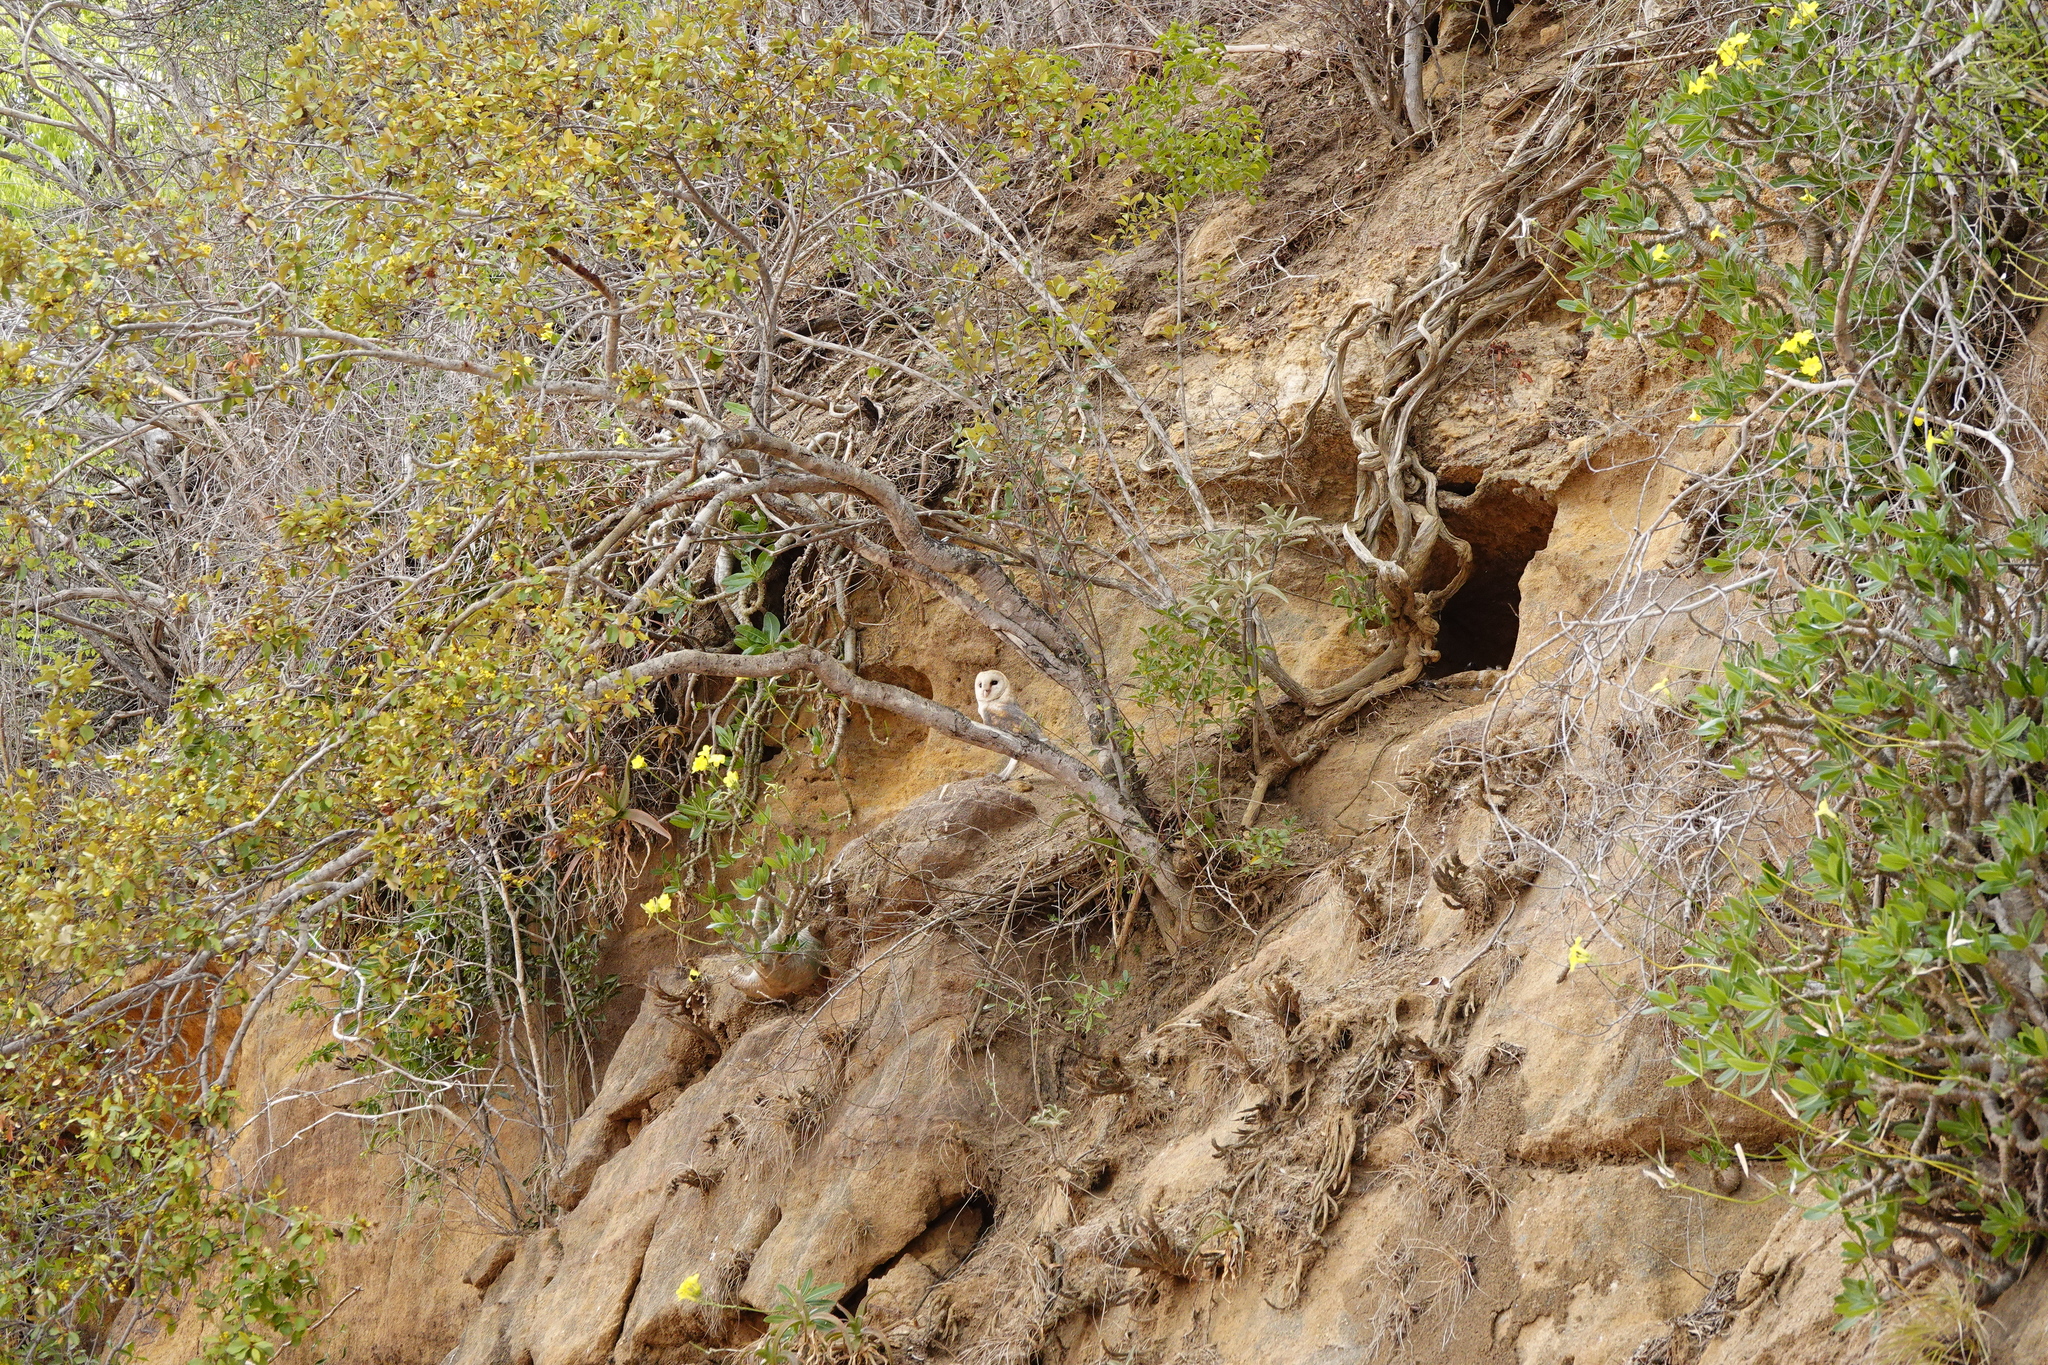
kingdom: Animalia
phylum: Chordata
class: Aves
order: Strigiformes
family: Tytonidae
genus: Tyto
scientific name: Tyto alba
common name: Barn owl
